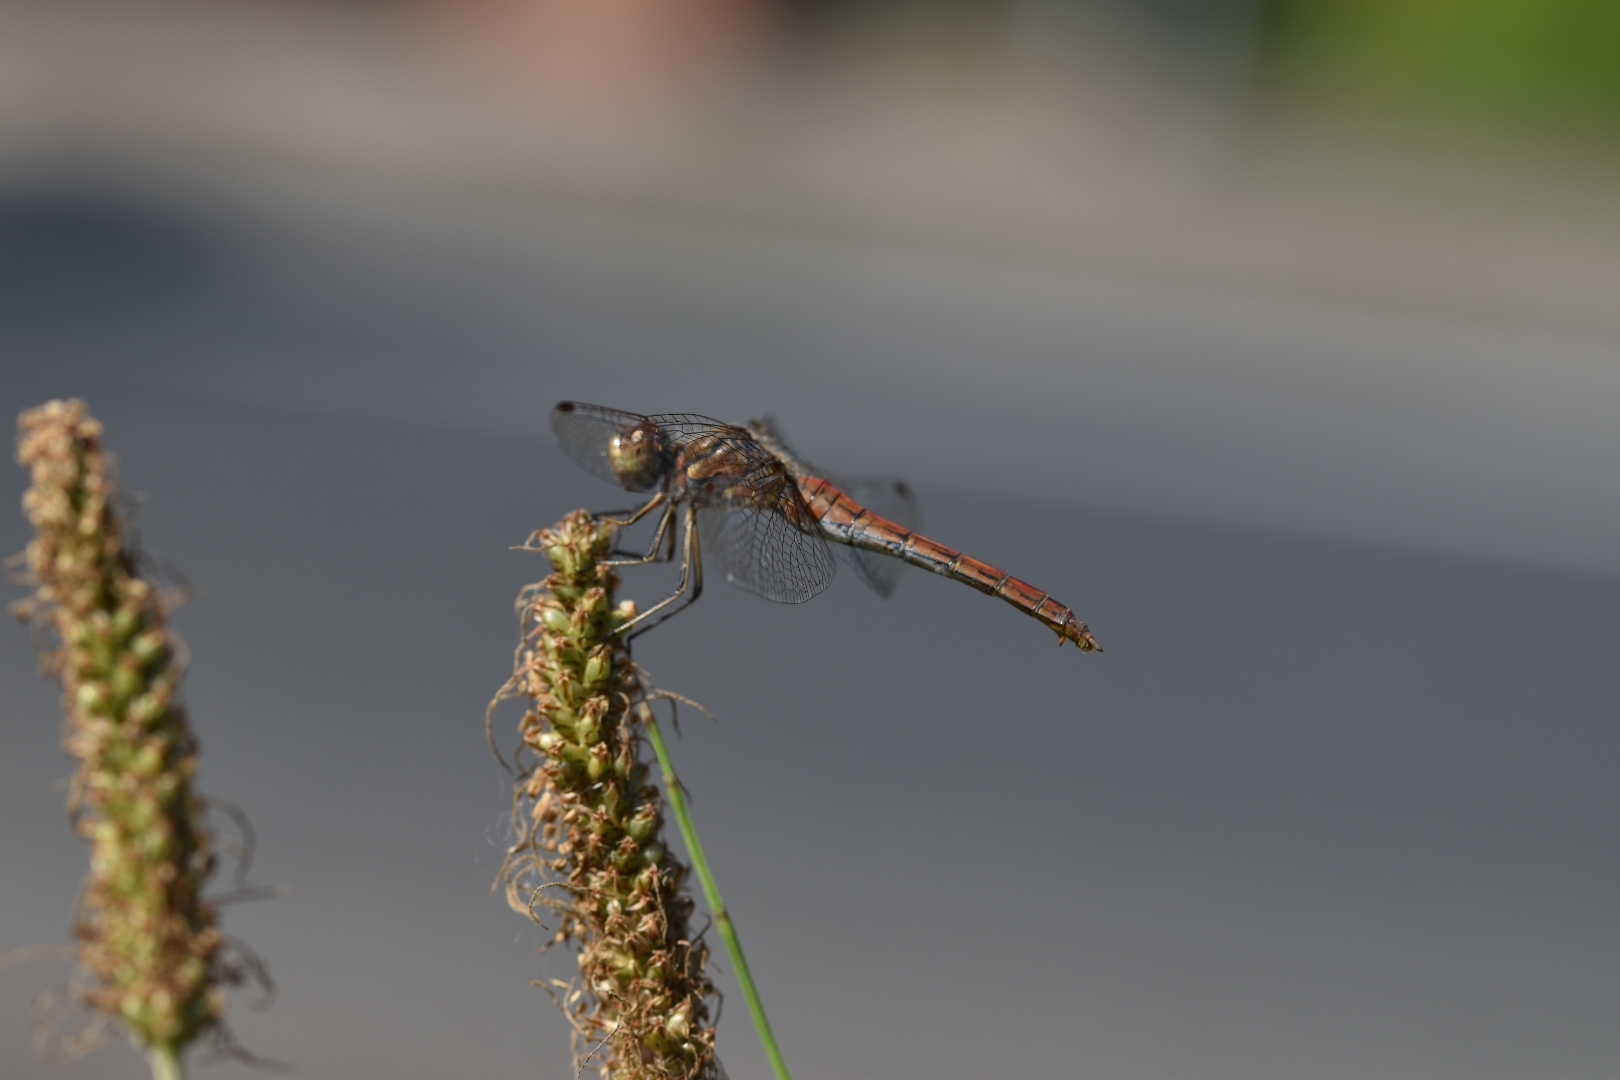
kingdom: Animalia
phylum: Arthropoda
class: Insecta
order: Odonata
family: Libellulidae
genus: Sympetrum
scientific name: Sympetrum vulgatum
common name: Vagrant darter
